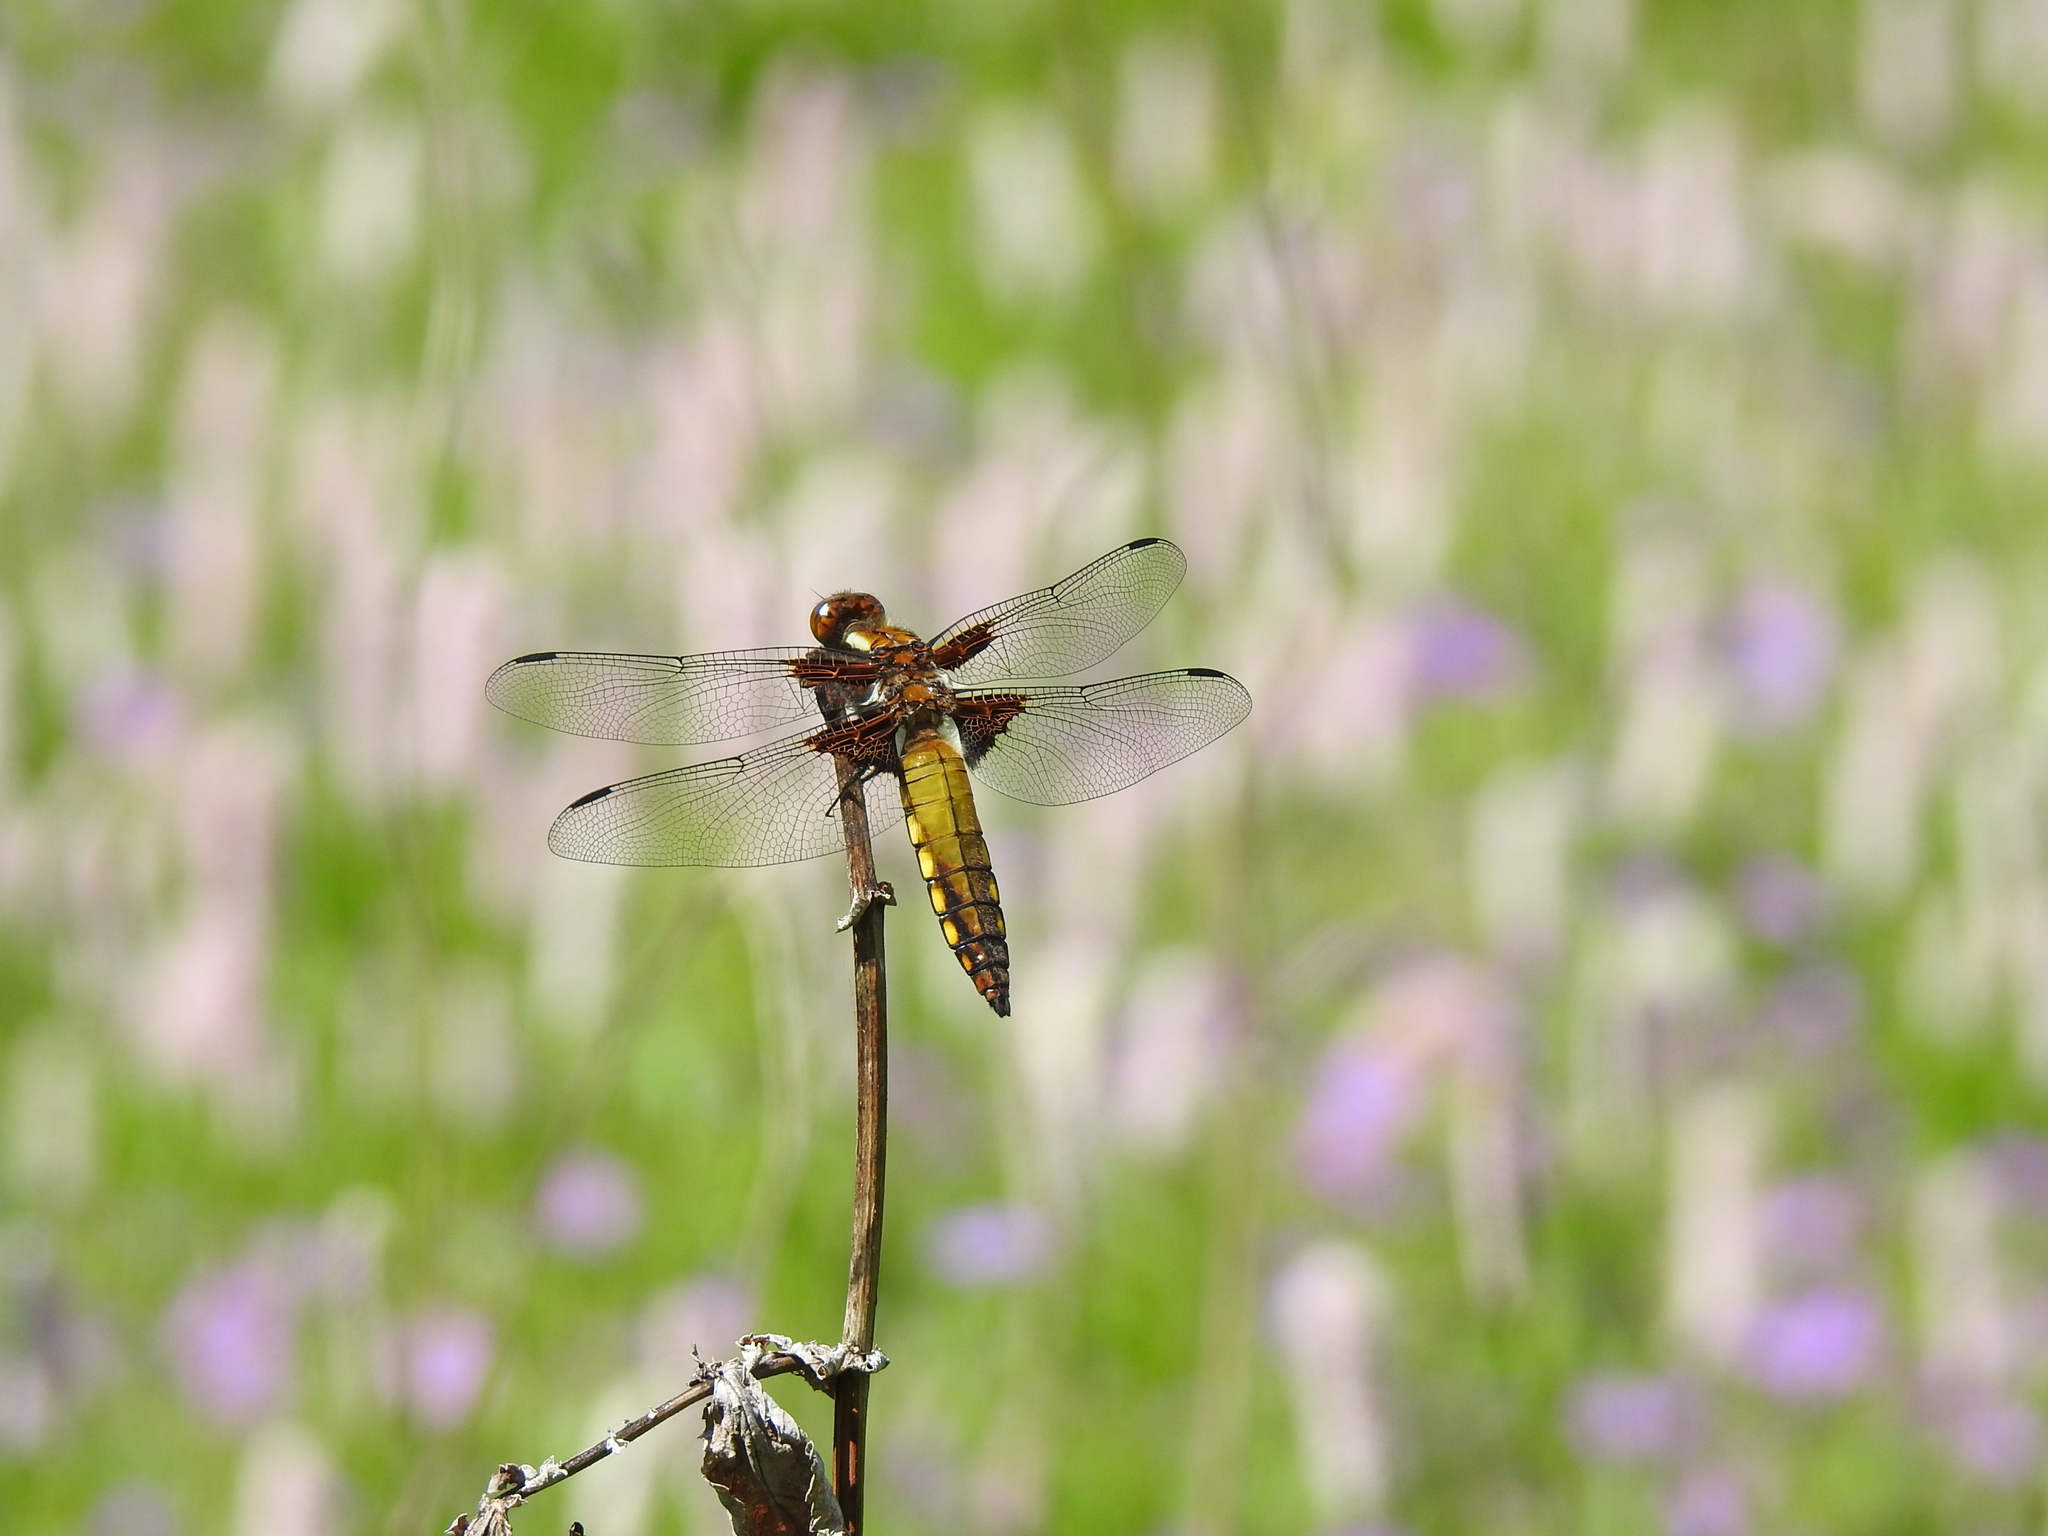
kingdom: Animalia
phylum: Arthropoda
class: Insecta
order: Odonata
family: Libellulidae
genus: Libellula
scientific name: Libellula depressa
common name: Broad-bodied chaser
